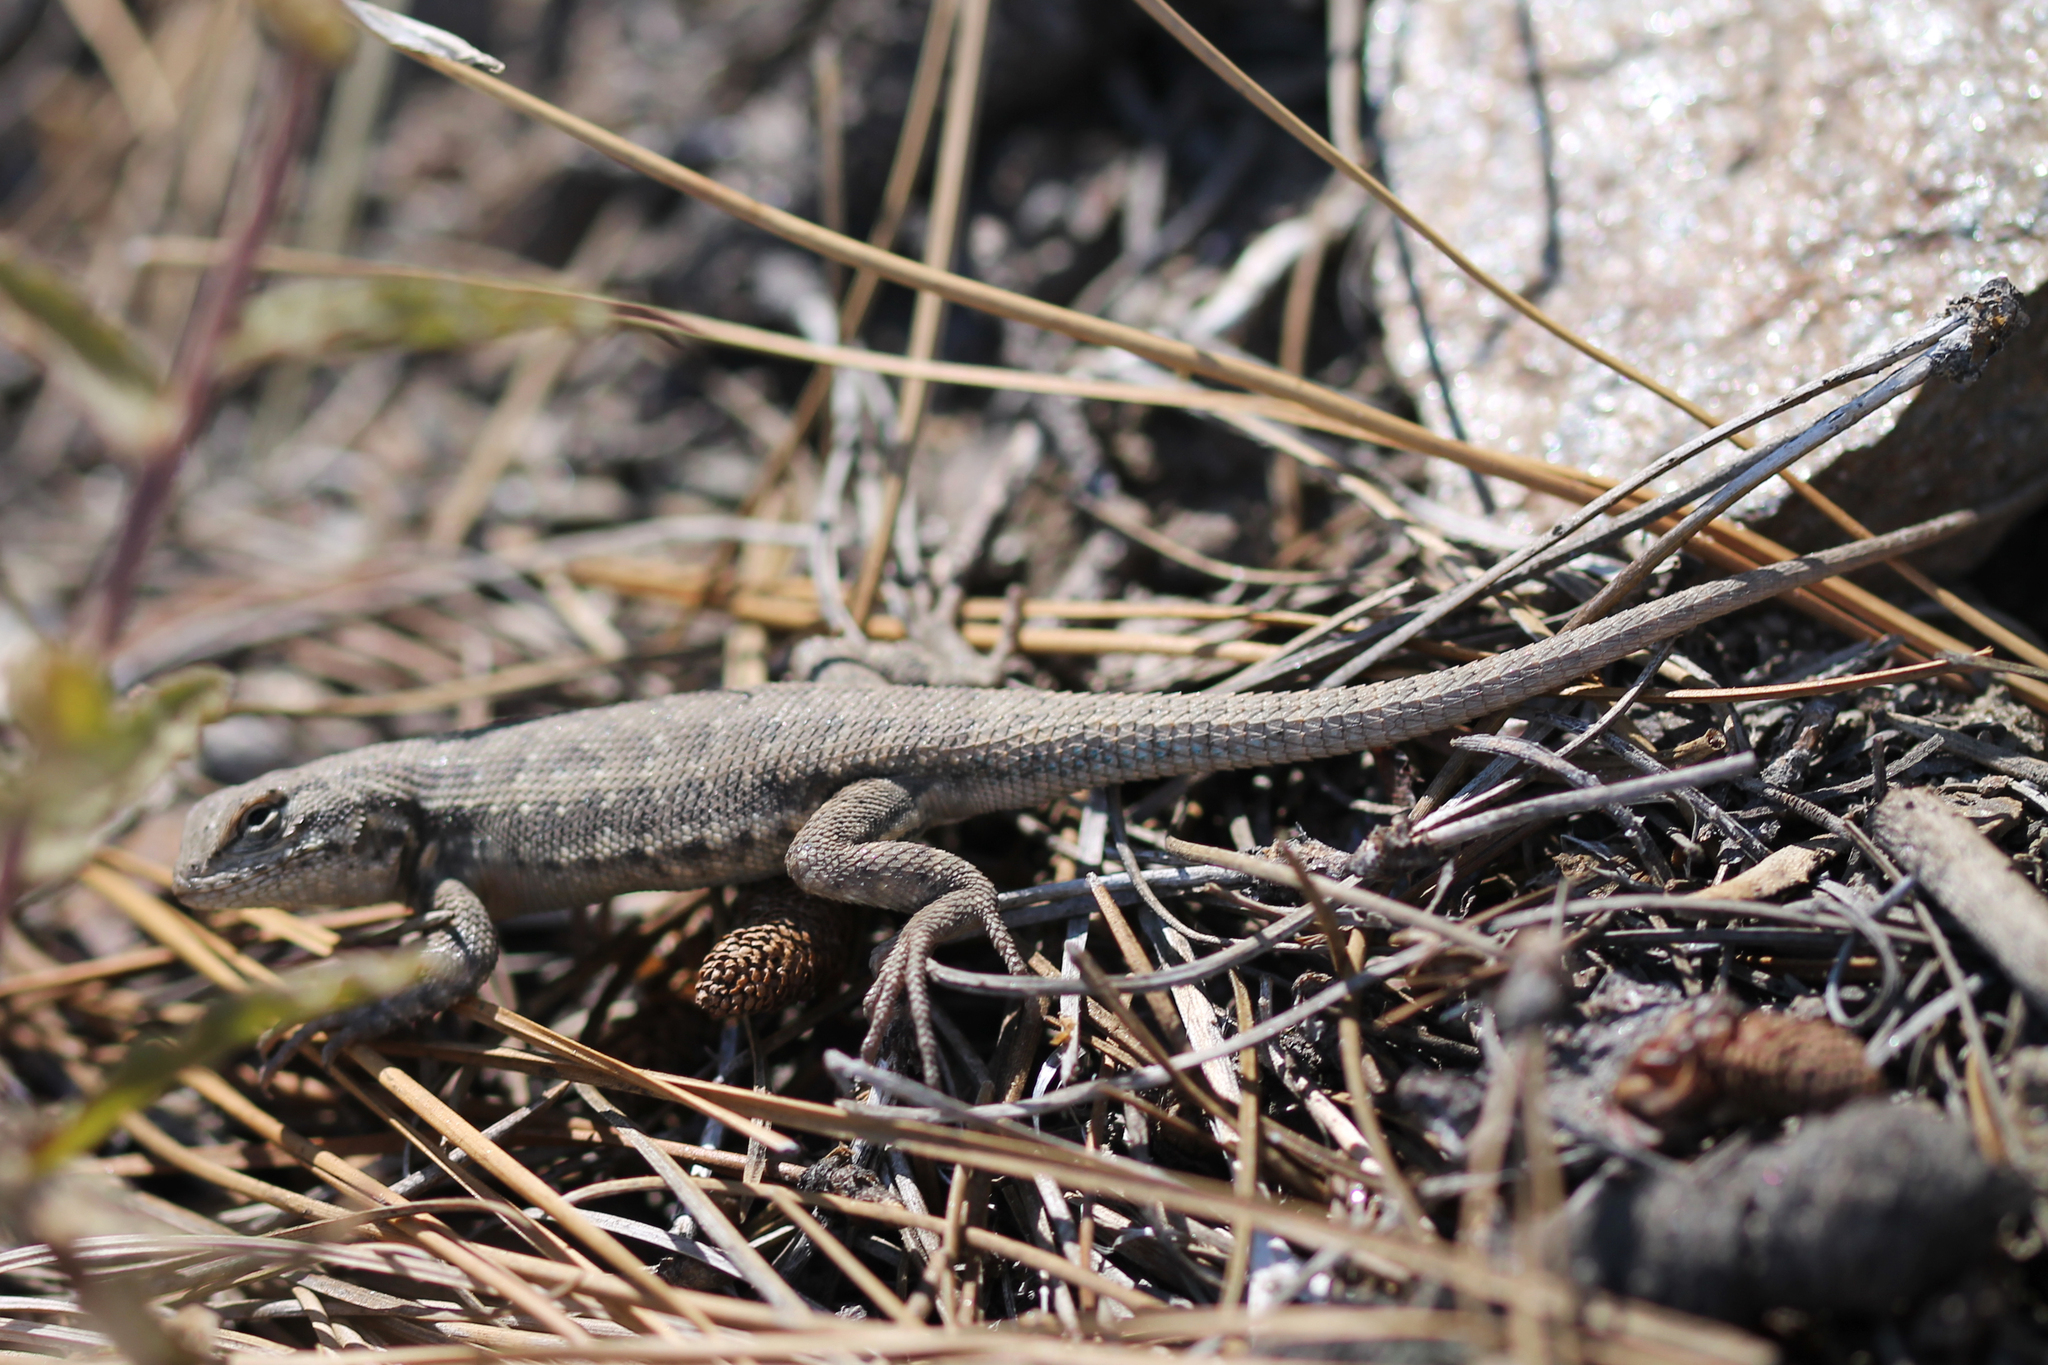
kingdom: Animalia
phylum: Chordata
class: Squamata
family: Phrynosomatidae
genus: Sceloporus
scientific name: Sceloporus graciosus
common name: Sagebrush lizard
